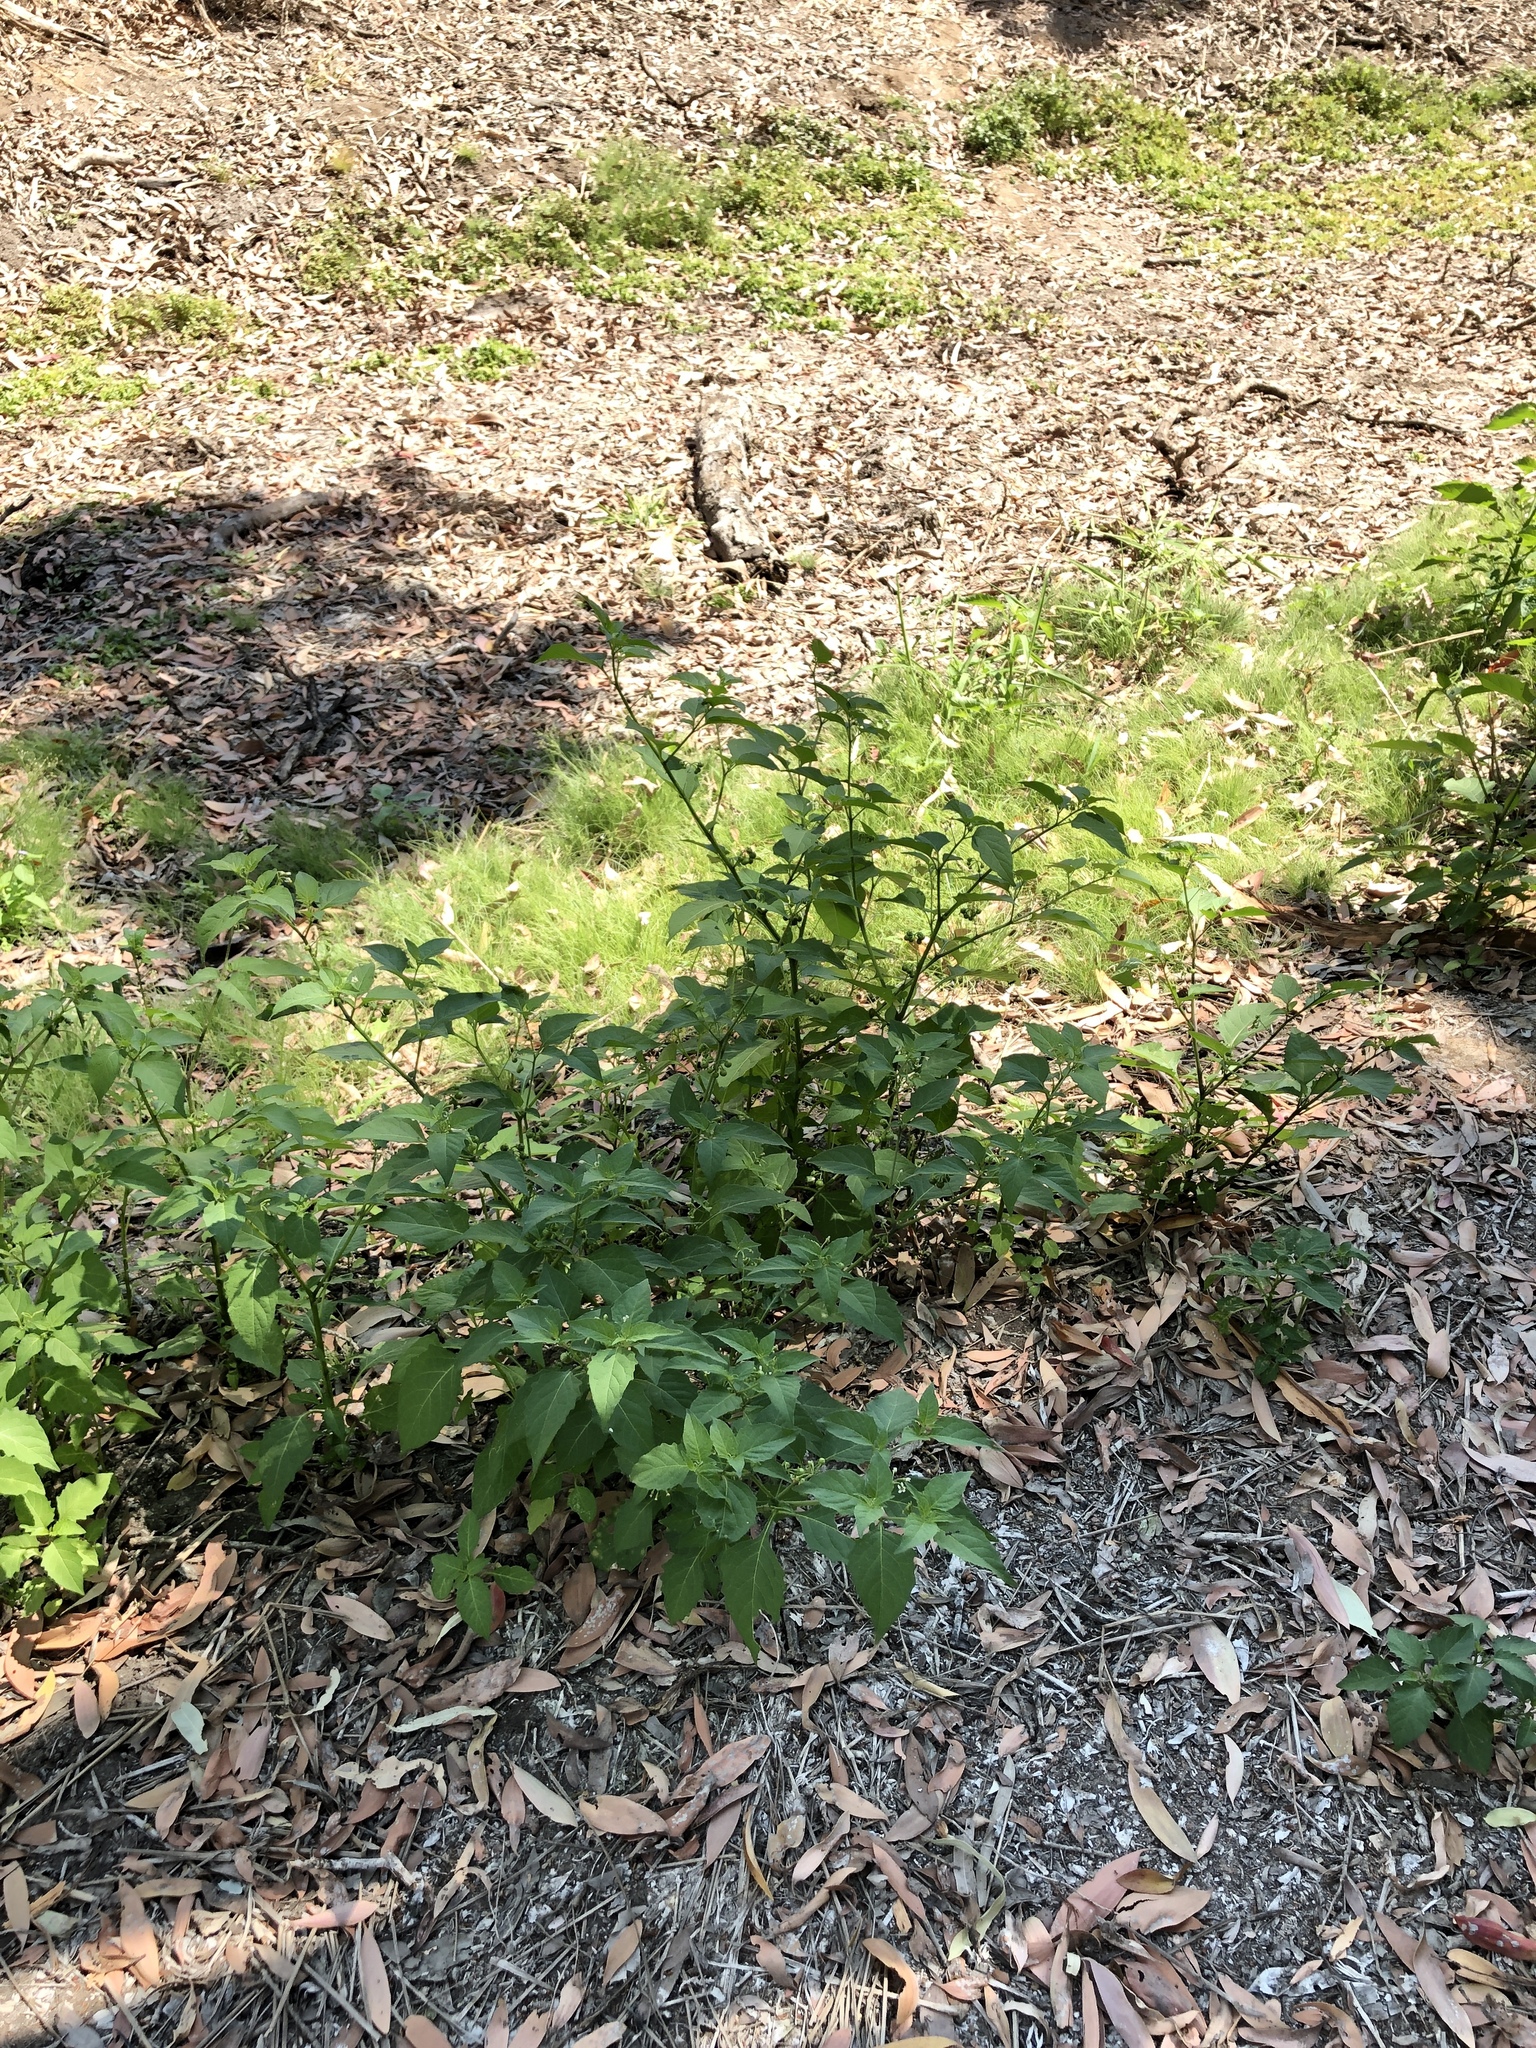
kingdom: Plantae
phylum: Tracheophyta
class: Magnoliopsida
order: Solanales
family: Solanaceae
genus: Solanum
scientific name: Solanum americanum
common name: American black nightshade
